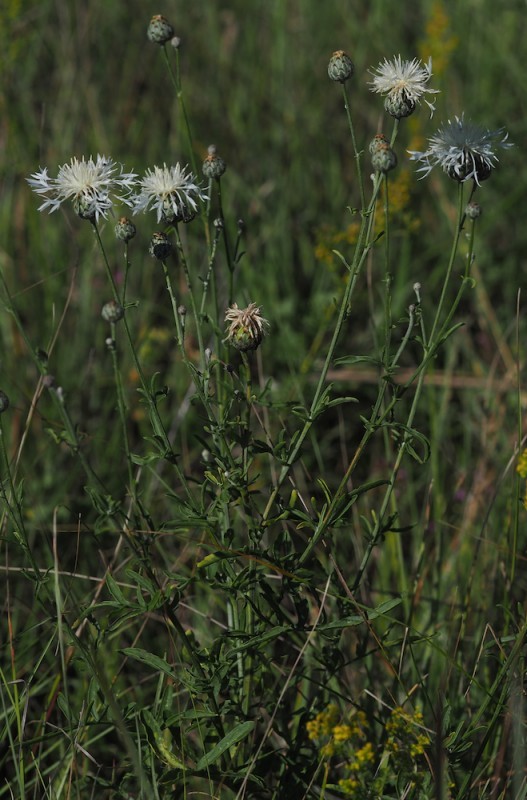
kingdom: Plantae
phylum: Tracheophyta
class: Magnoliopsida
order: Asterales
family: Asteraceae
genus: Centaurea
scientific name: Centaurea scabiosa
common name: Greater knapweed
